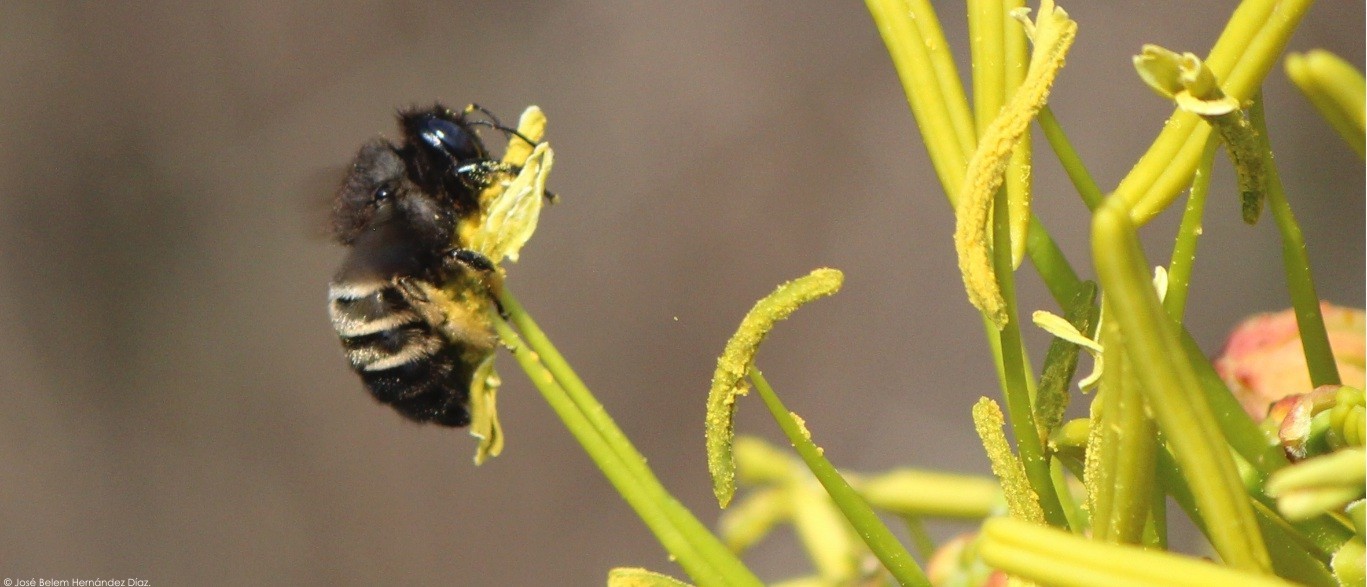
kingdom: Animalia
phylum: Arthropoda
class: Insecta
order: Hymenoptera
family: Apidae
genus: Xylocopa
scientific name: Xylocopa tabaniformis
